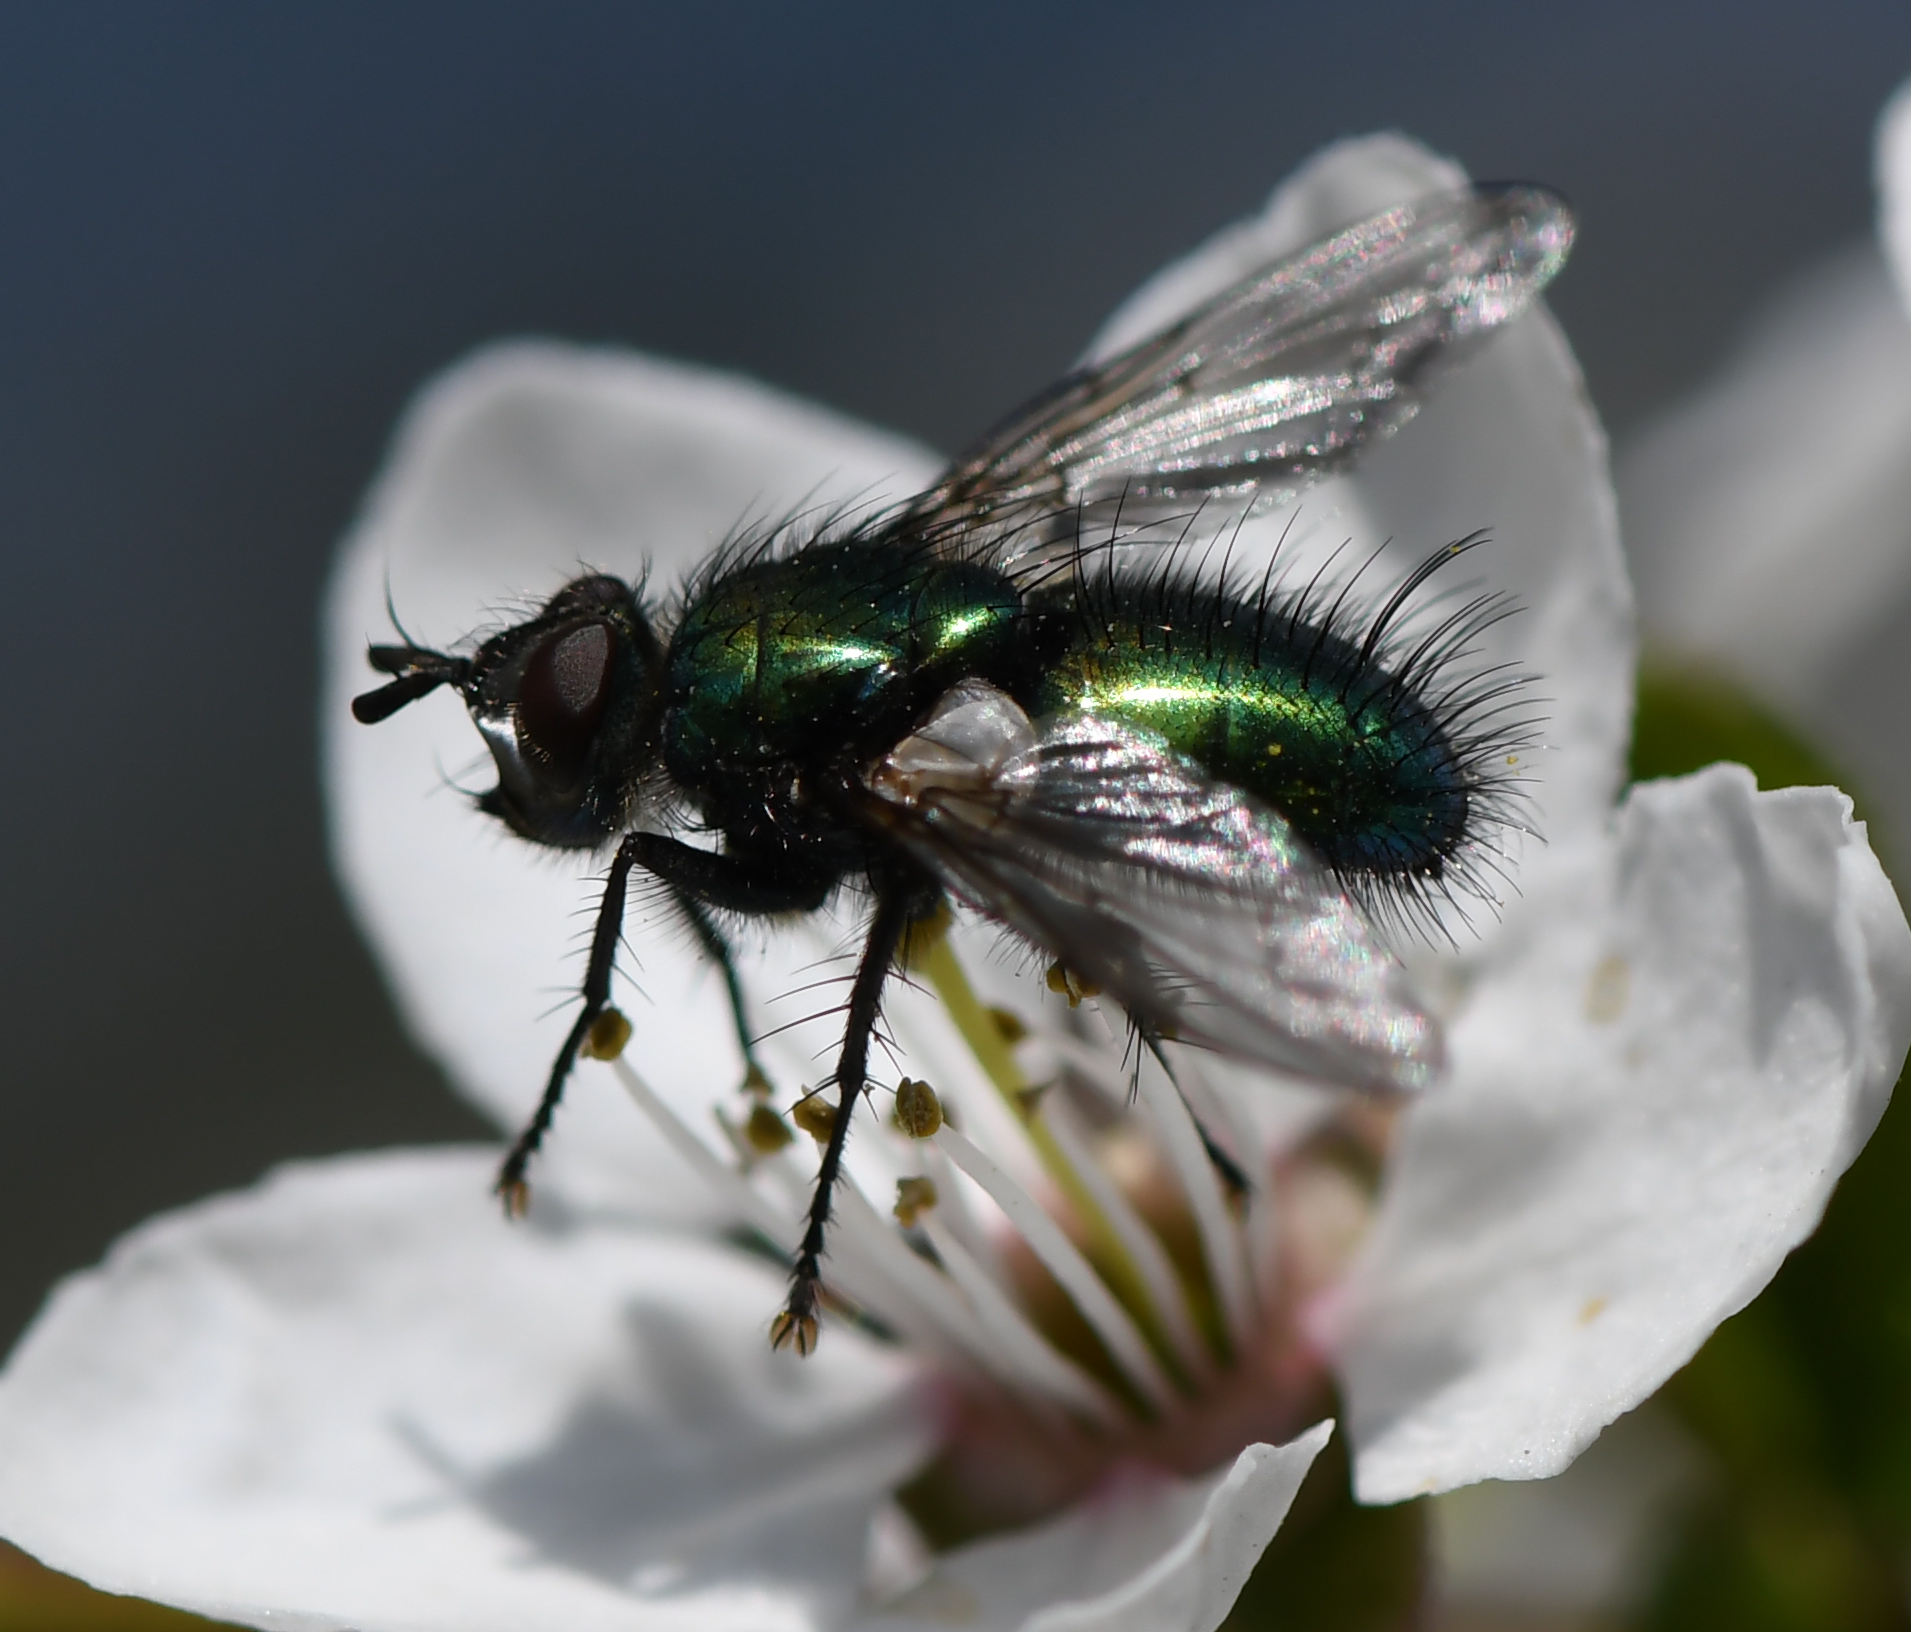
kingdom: Animalia
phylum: Arthropoda
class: Insecta
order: Diptera
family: Tachinidae
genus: Gymnocheta
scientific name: Gymnocheta viridis
